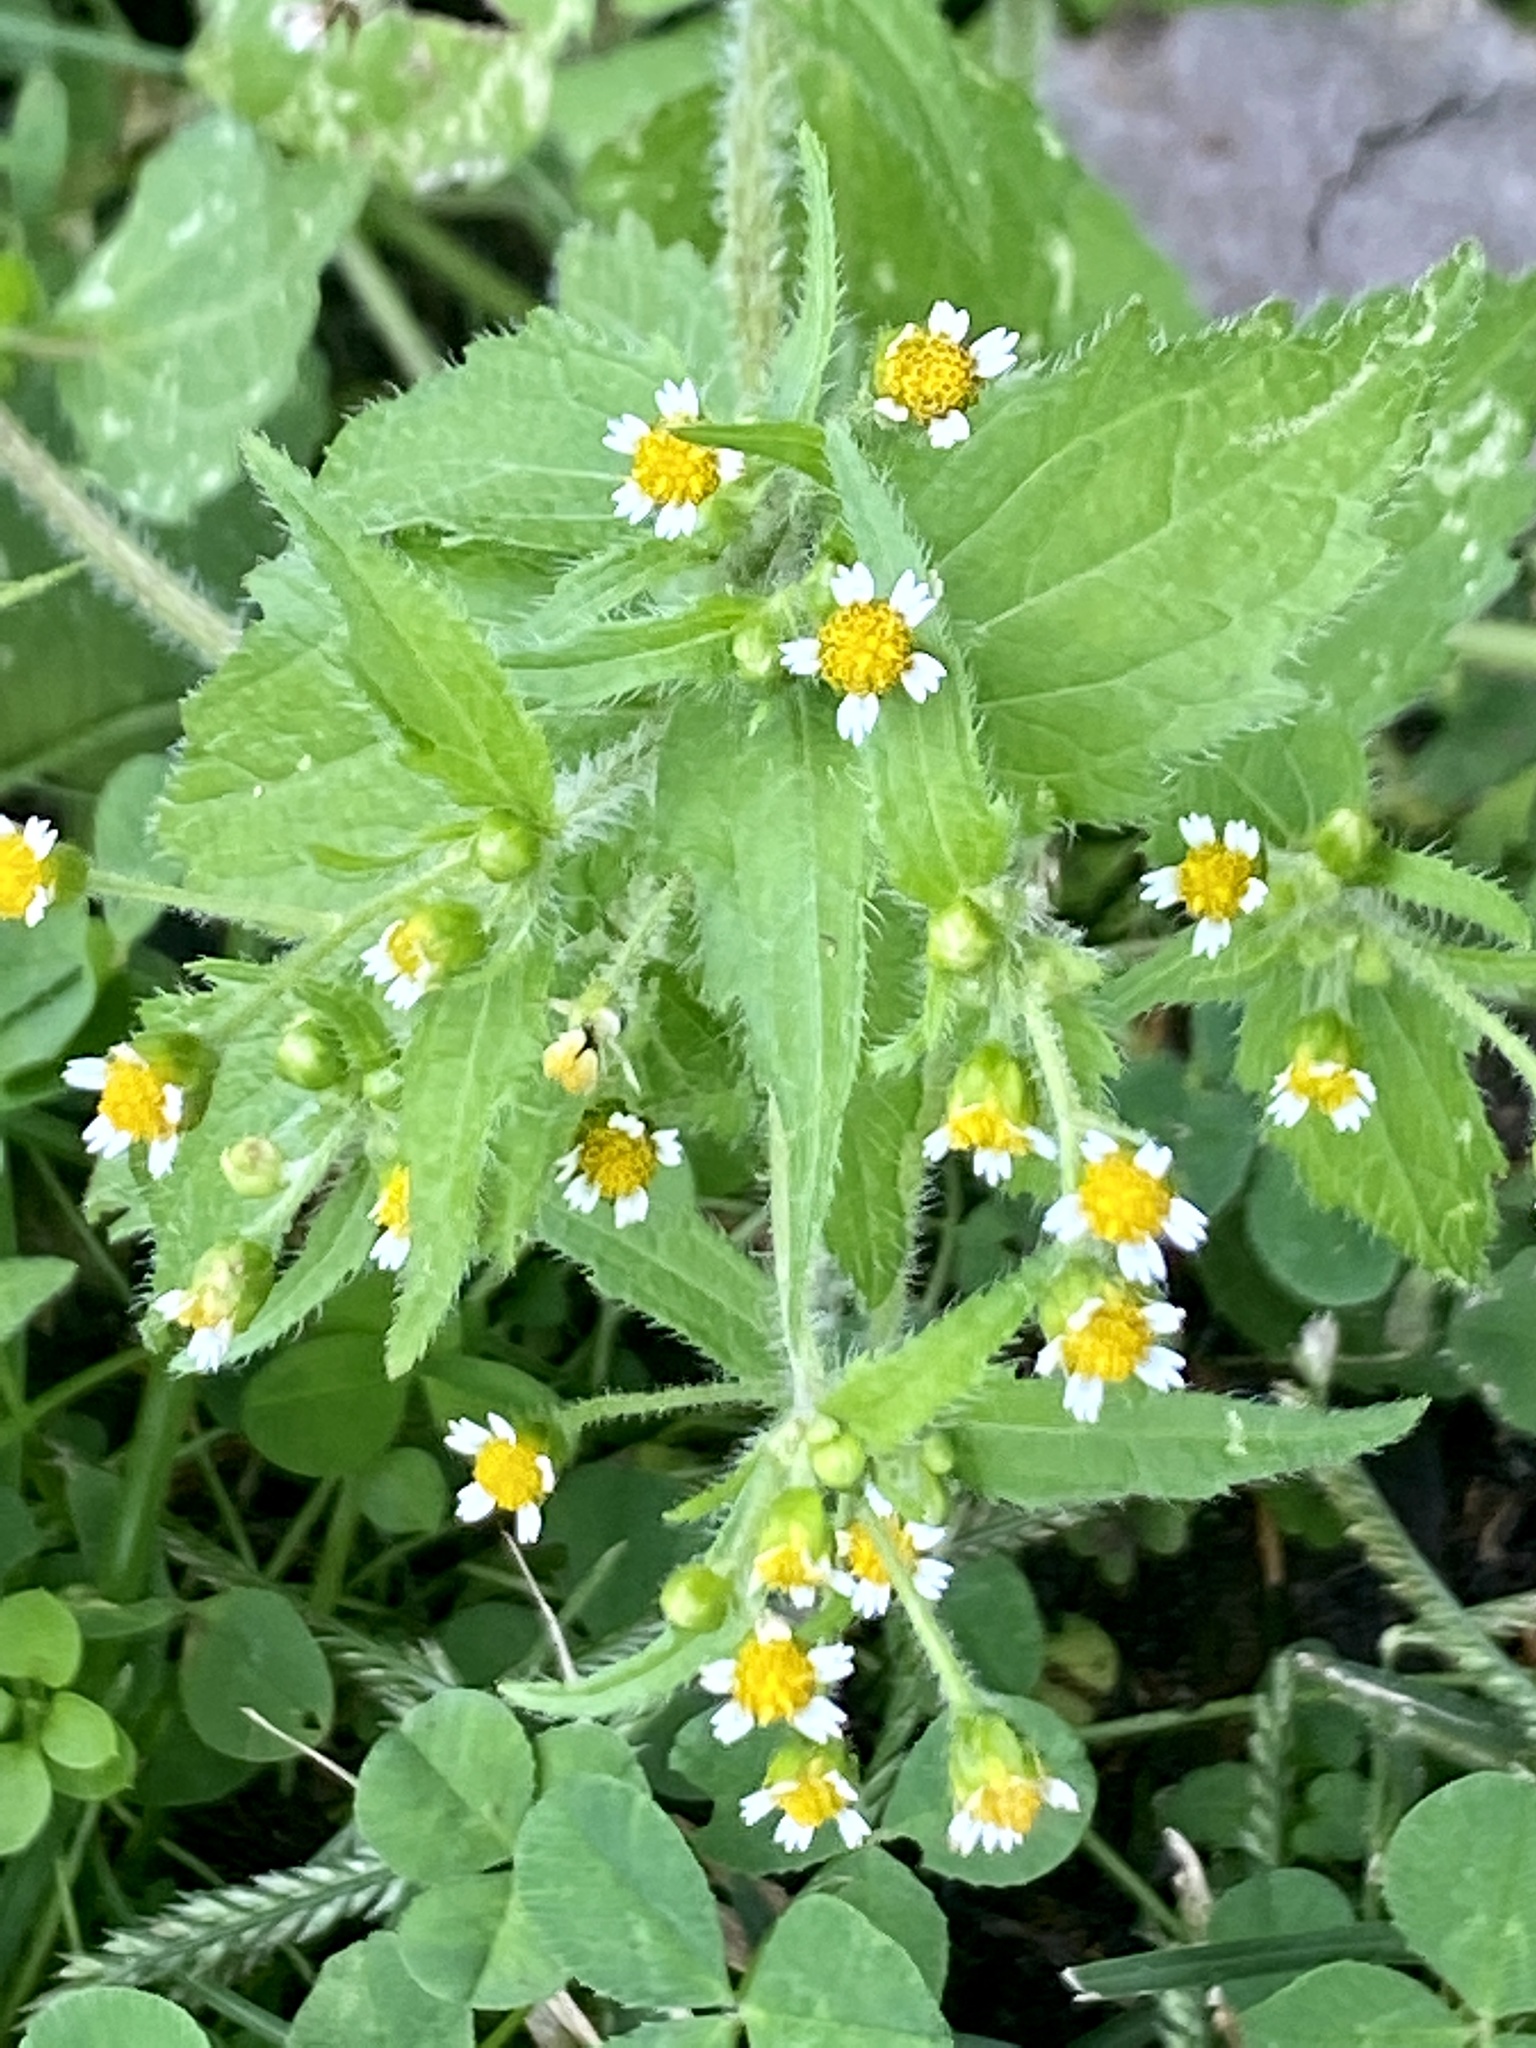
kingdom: Plantae
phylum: Tracheophyta
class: Magnoliopsida
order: Asterales
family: Asteraceae
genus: Galinsoga
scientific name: Galinsoga quadriradiata
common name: Shaggy soldier
